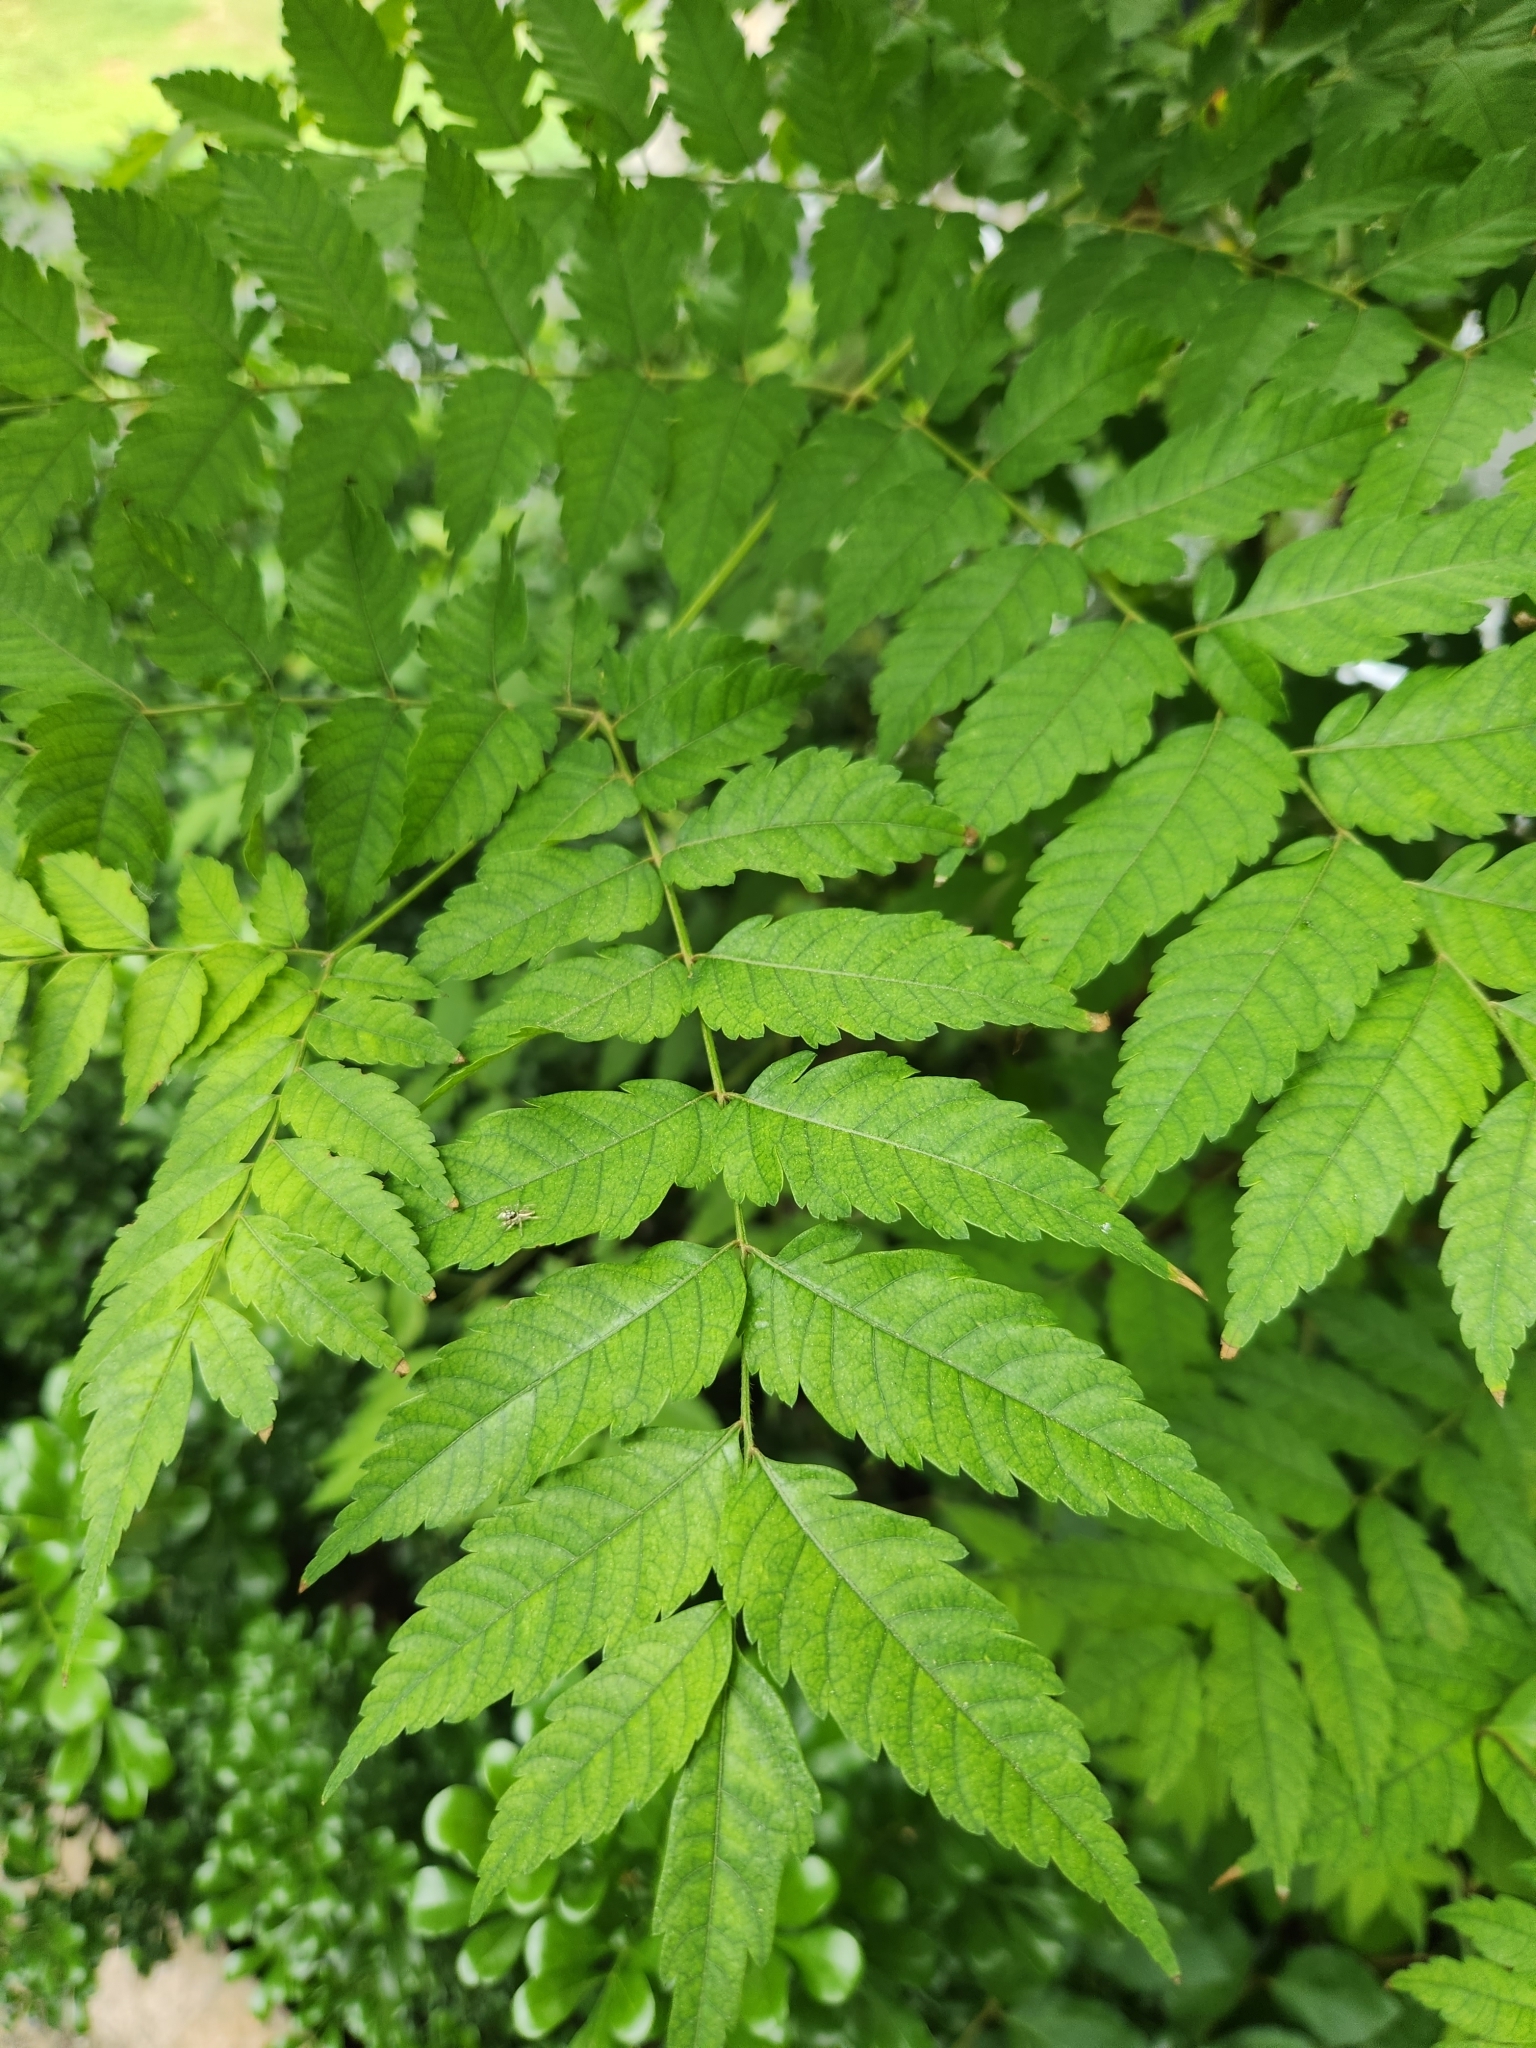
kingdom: Plantae
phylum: Tracheophyta
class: Magnoliopsida
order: Sapindales
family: Sapindaceae
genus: Koelreuteria
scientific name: Koelreuteria elegans
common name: Chinese flame tree
